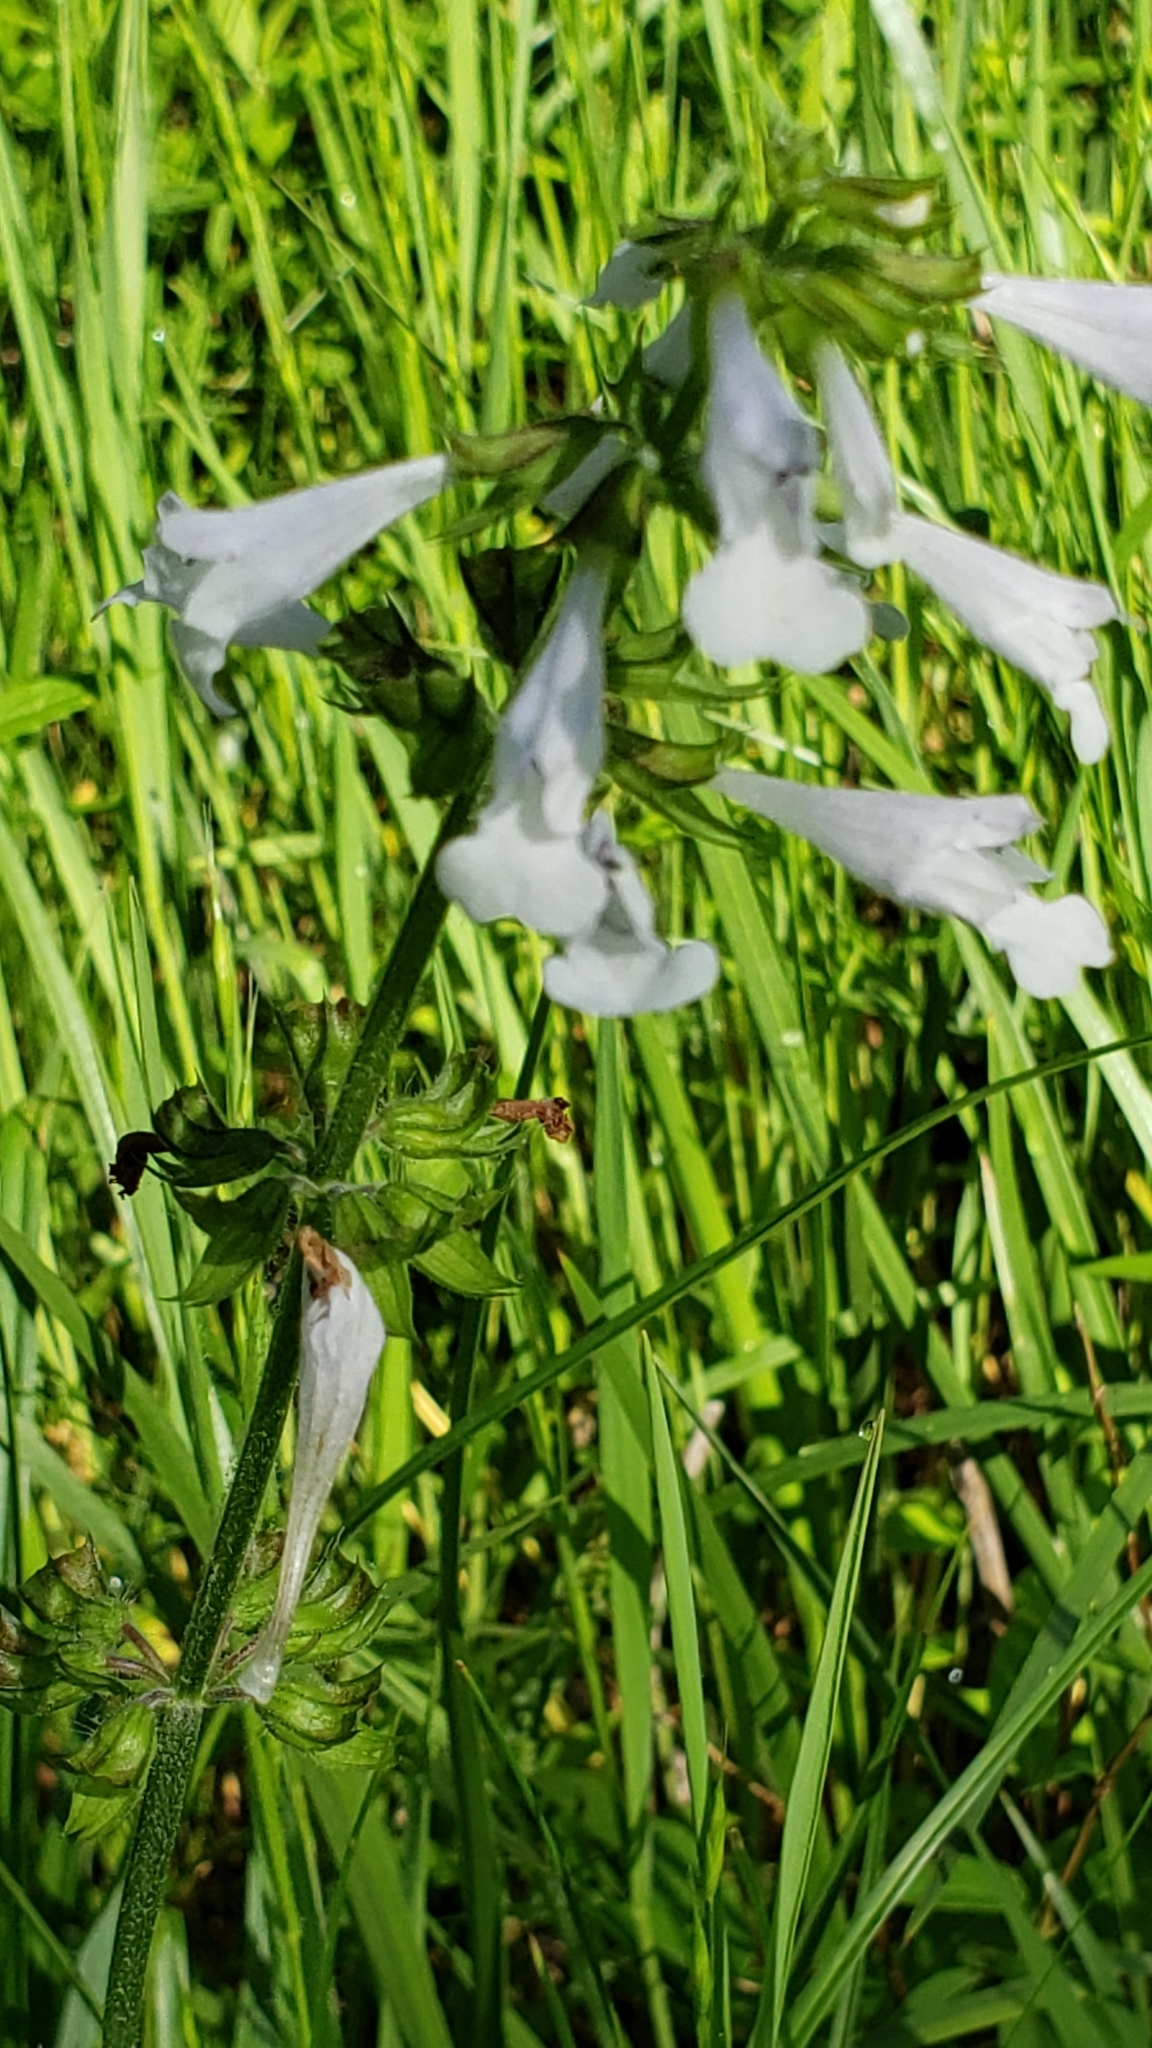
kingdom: Plantae
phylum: Tracheophyta
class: Magnoliopsida
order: Lamiales
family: Lamiaceae
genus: Salvia
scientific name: Salvia lyrata
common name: Cancerweed
